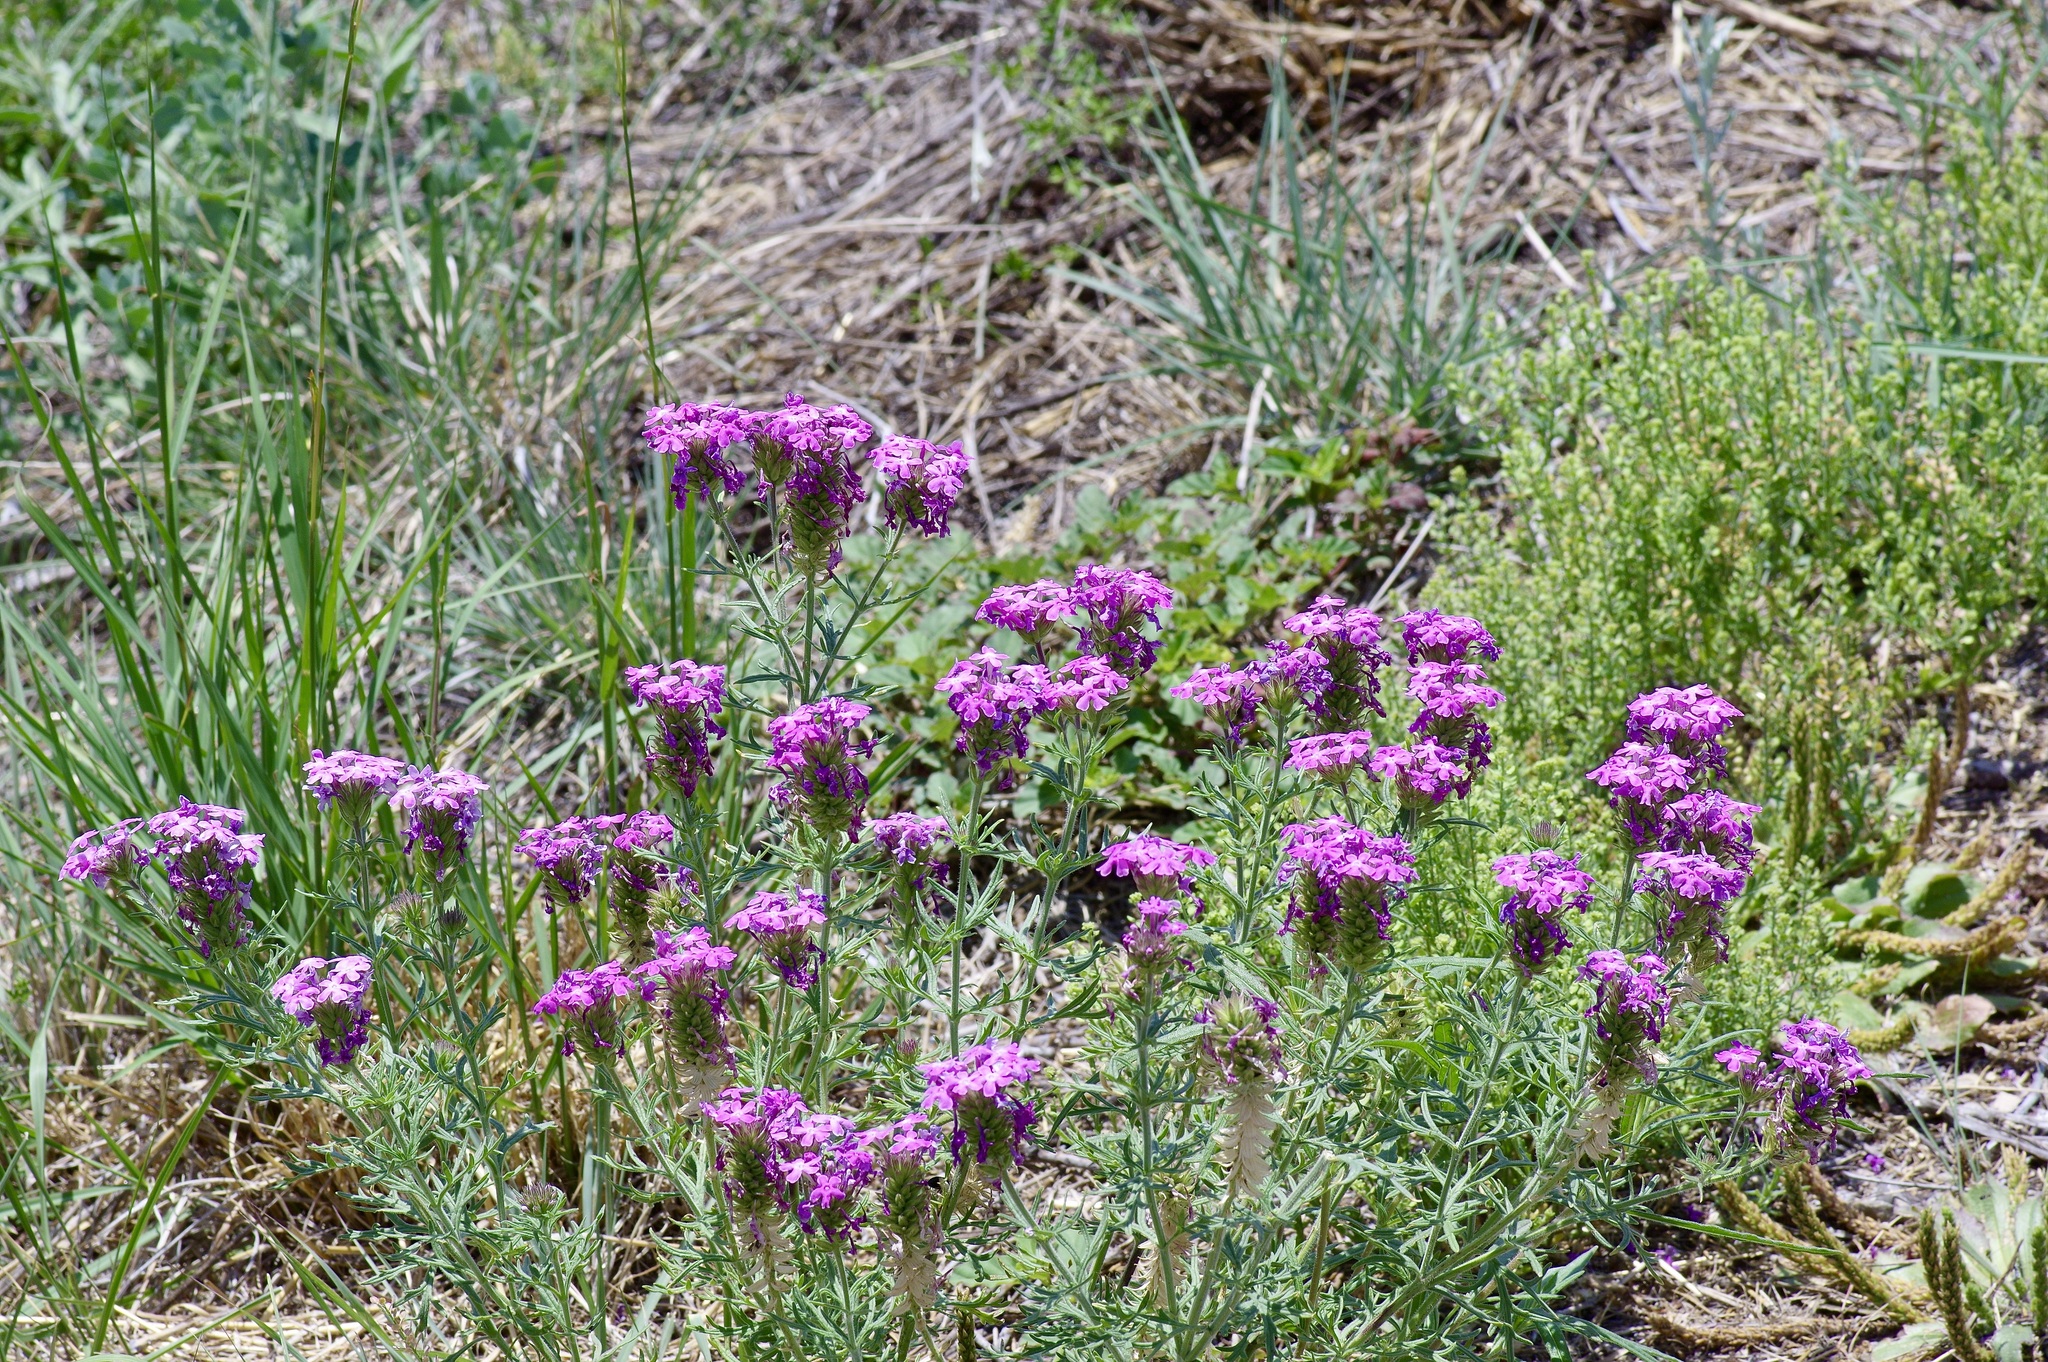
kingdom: Plantae
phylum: Tracheophyta
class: Magnoliopsida
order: Lamiales
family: Verbenaceae
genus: Verbena
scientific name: Verbena bipinnatifida
